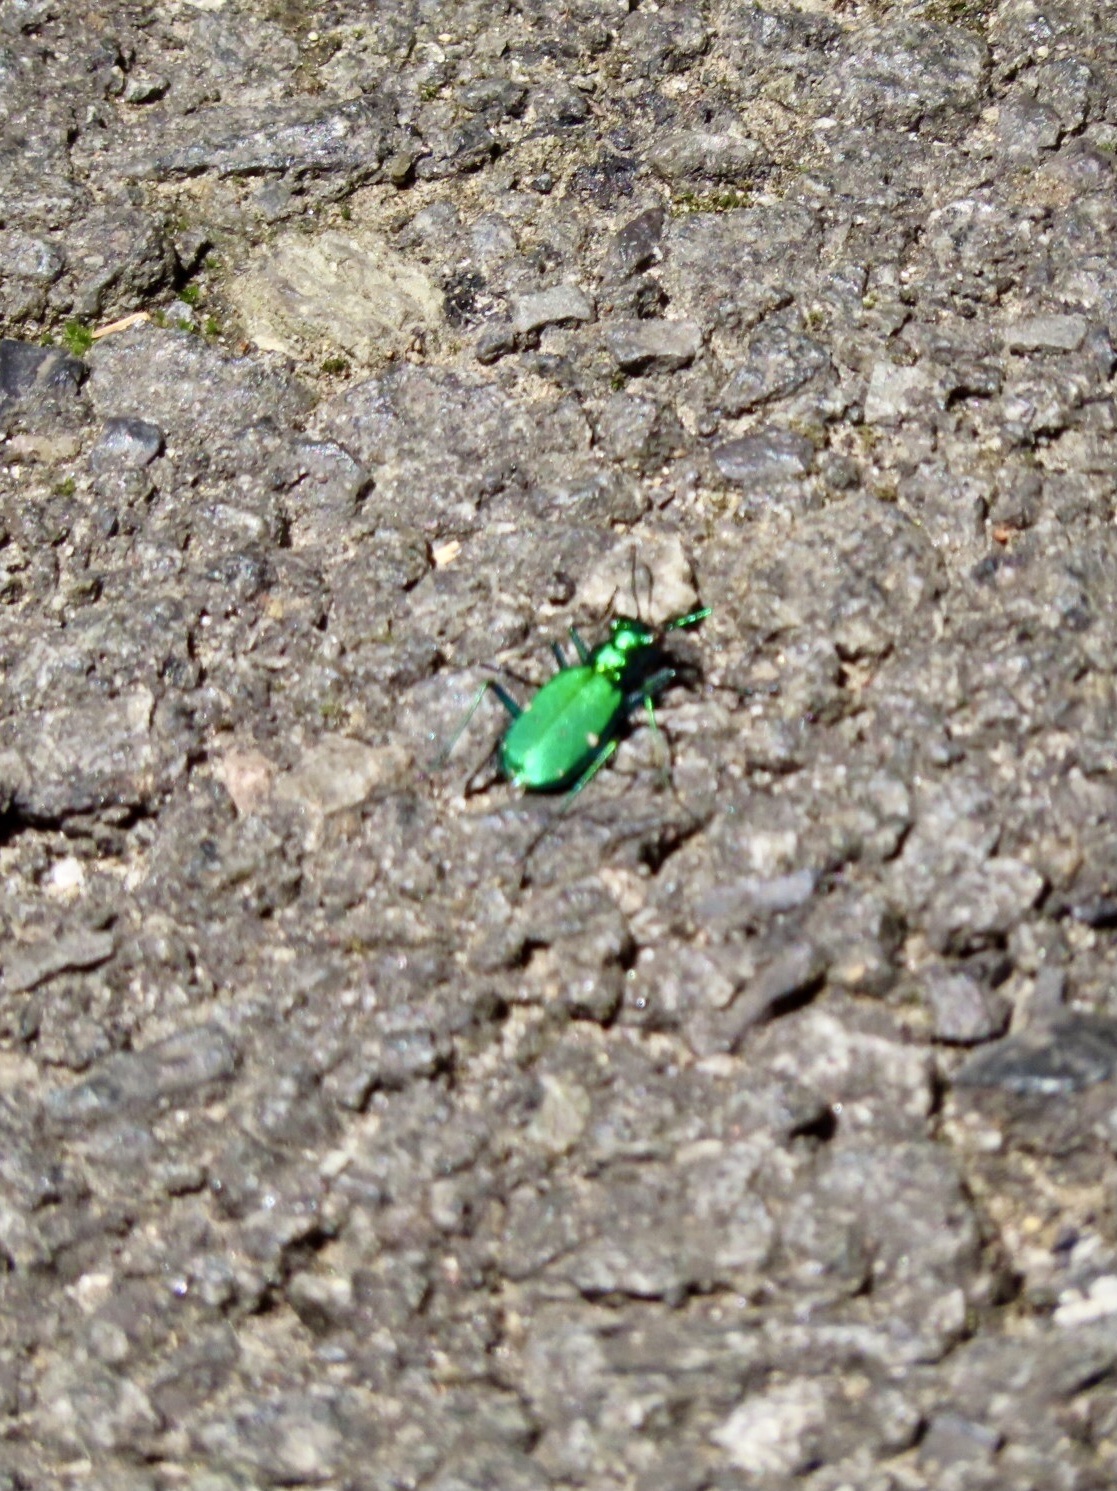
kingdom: Animalia
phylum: Arthropoda
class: Insecta
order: Coleoptera
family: Carabidae
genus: Cicindela
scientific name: Cicindela sexguttata
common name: Six-spotted tiger beetle
